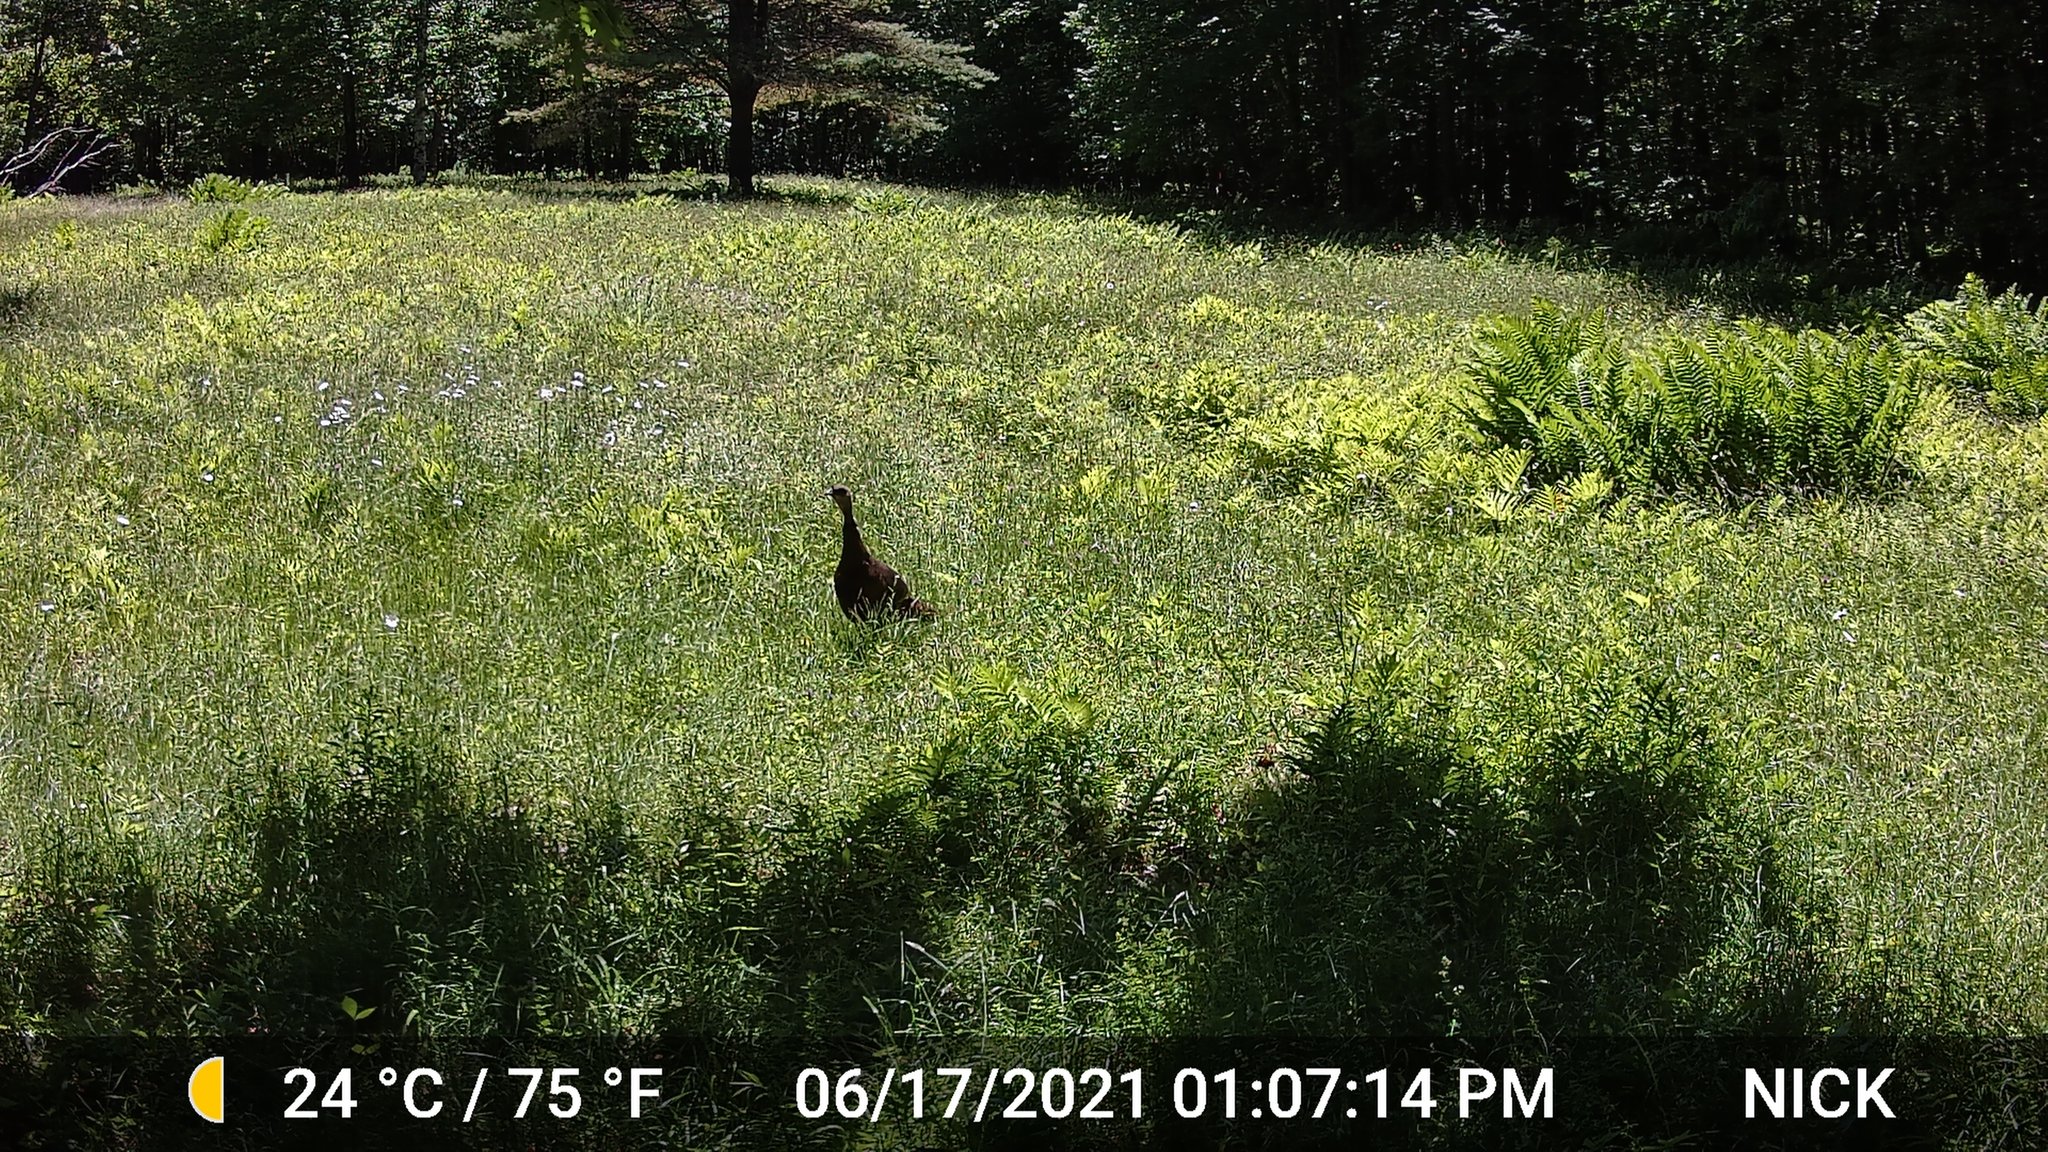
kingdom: Animalia
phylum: Chordata
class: Aves
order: Galliformes
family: Phasianidae
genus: Meleagris
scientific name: Meleagris gallopavo
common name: Wild turkey
